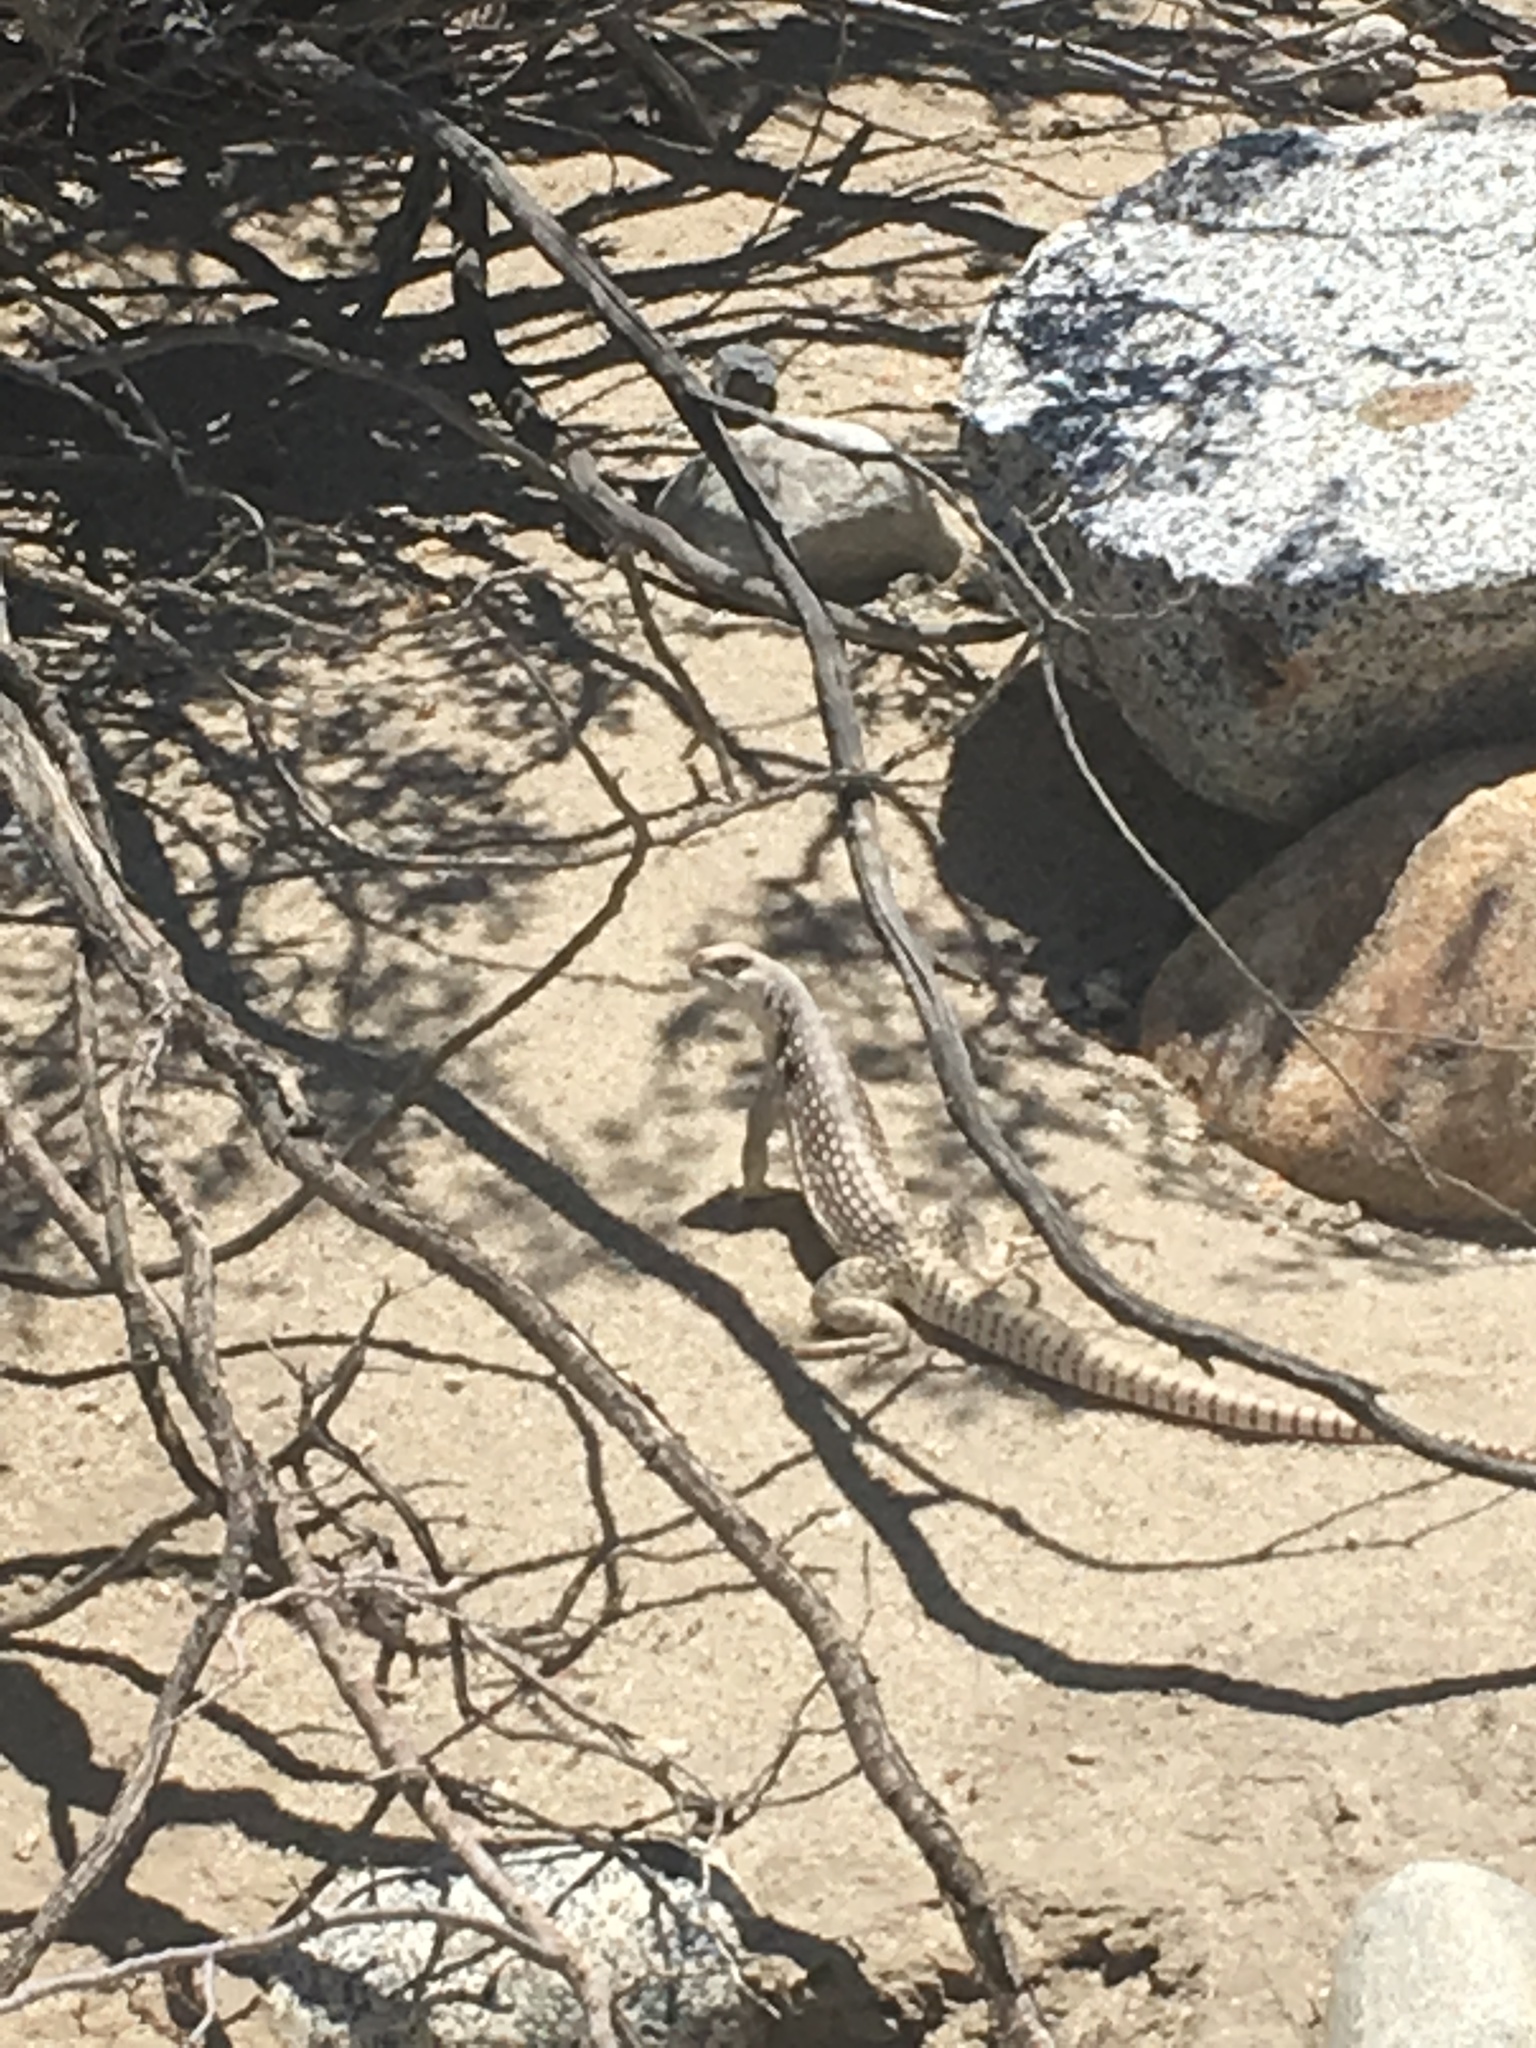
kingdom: Animalia
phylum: Chordata
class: Squamata
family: Iguanidae
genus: Dipsosaurus
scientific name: Dipsosaurus dorsalis
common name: Desert iguana
